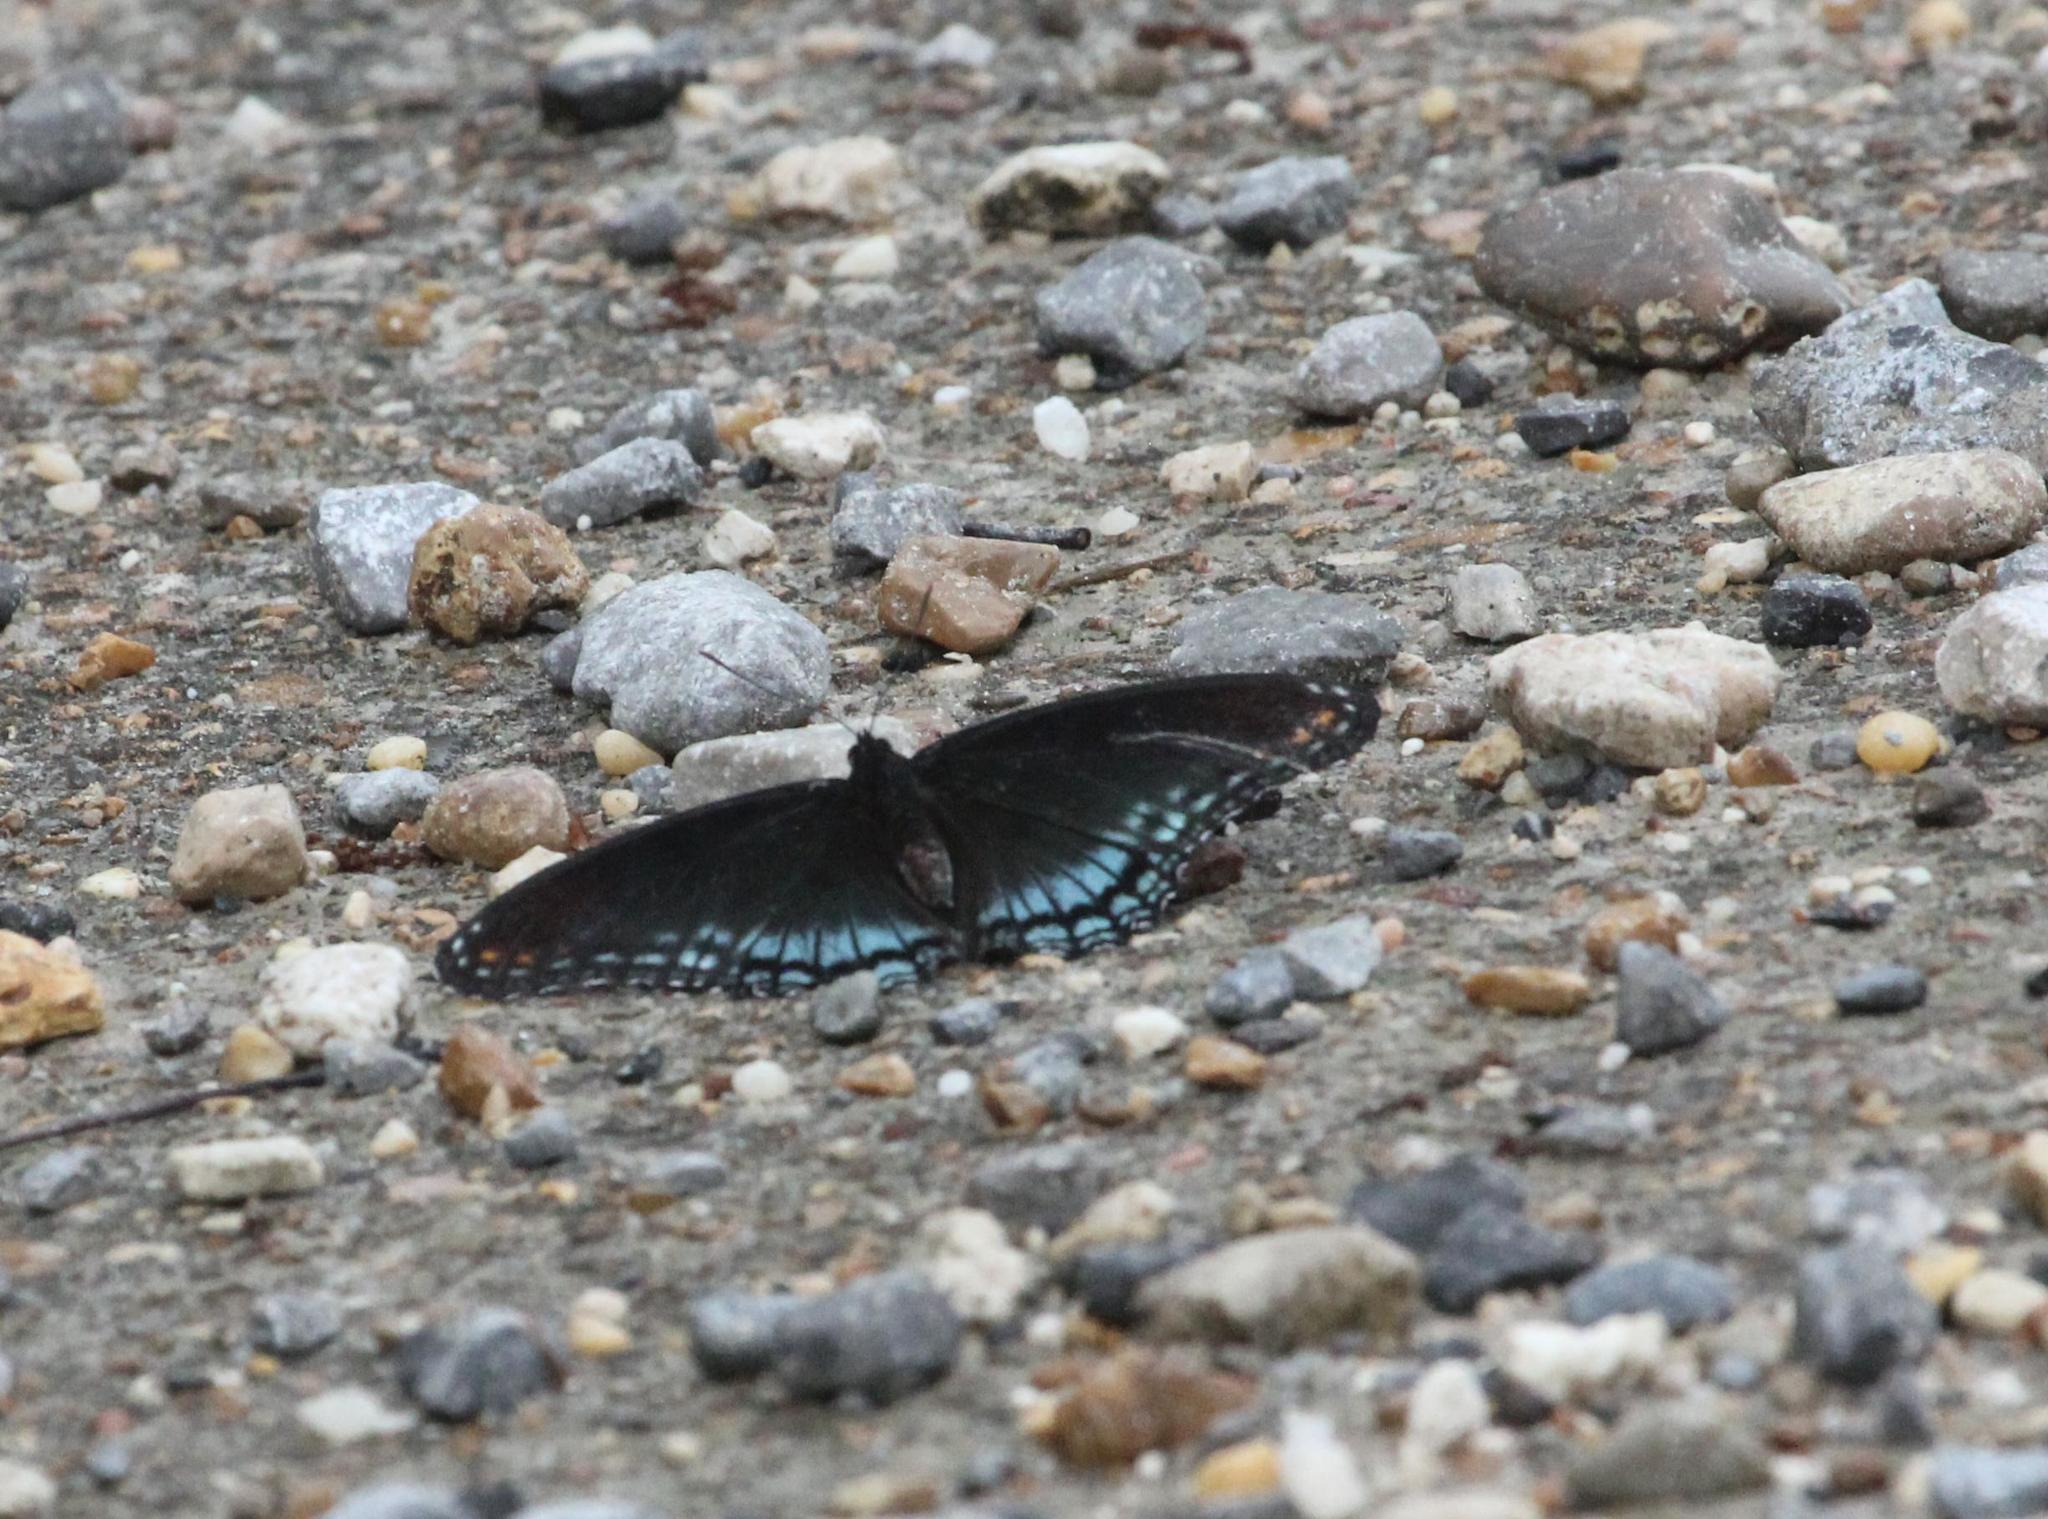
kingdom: Animalia
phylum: Arthropoda
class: Insecta
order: Lepidoptera
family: Nymphalidae
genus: Limenitis
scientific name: Limenitis astyanax
